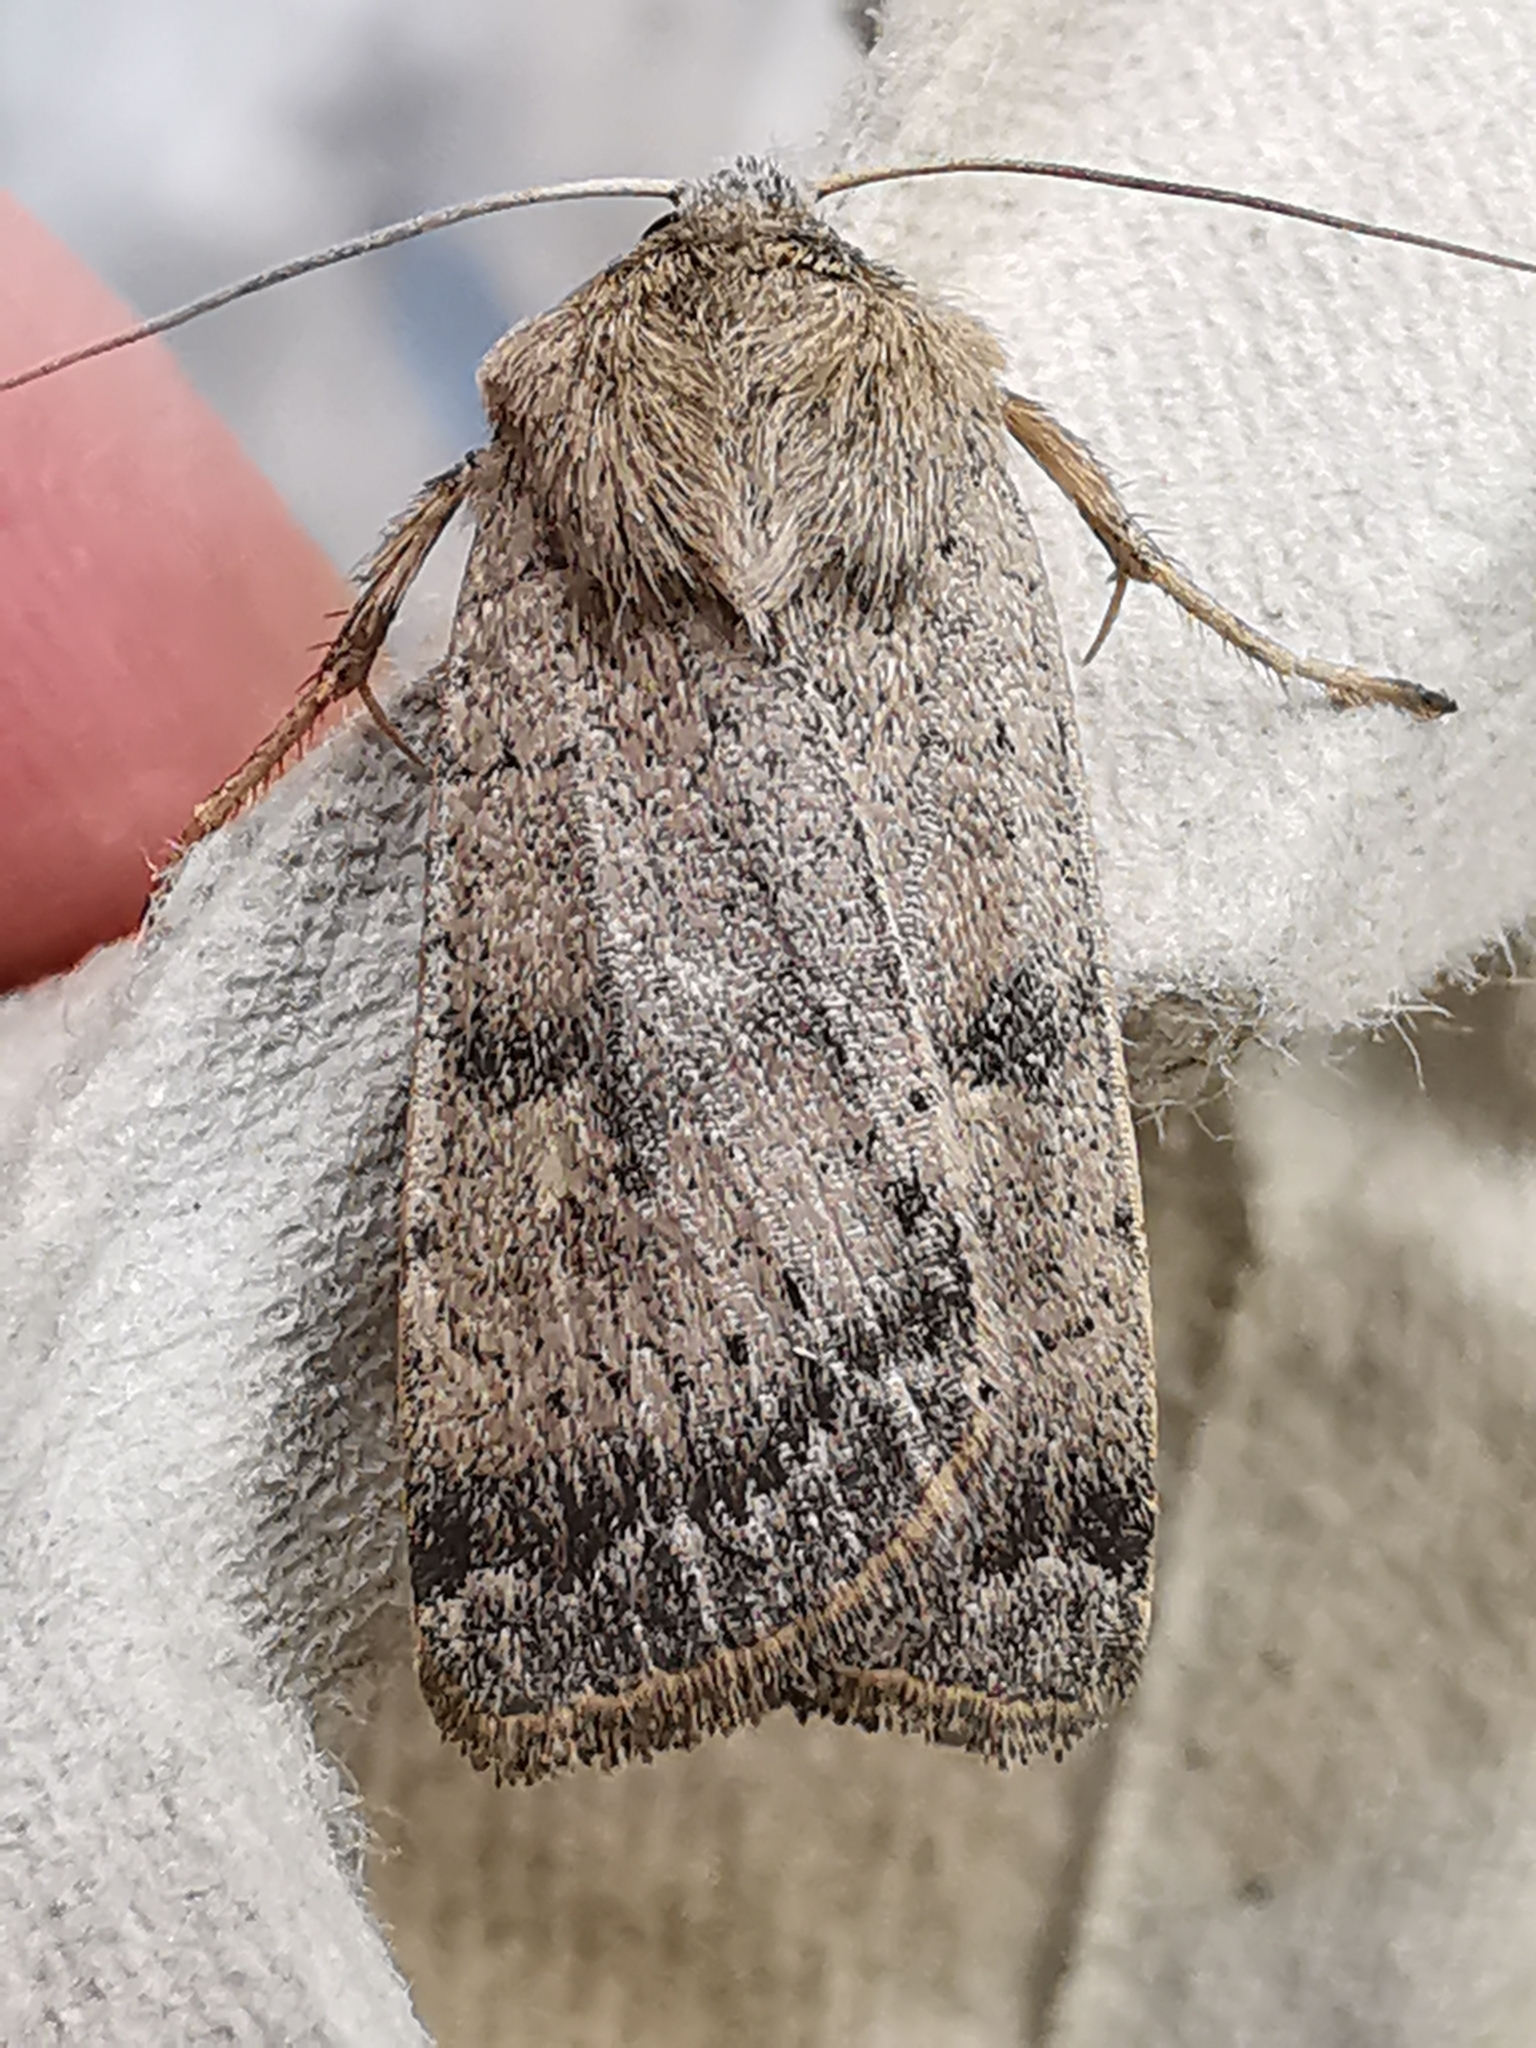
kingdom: Animalia
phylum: Arthropoda
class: Insecta
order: Lepidoptera
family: Noctuidae
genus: Xestia
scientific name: Xestia xanthographa
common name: Square-spot rustic
